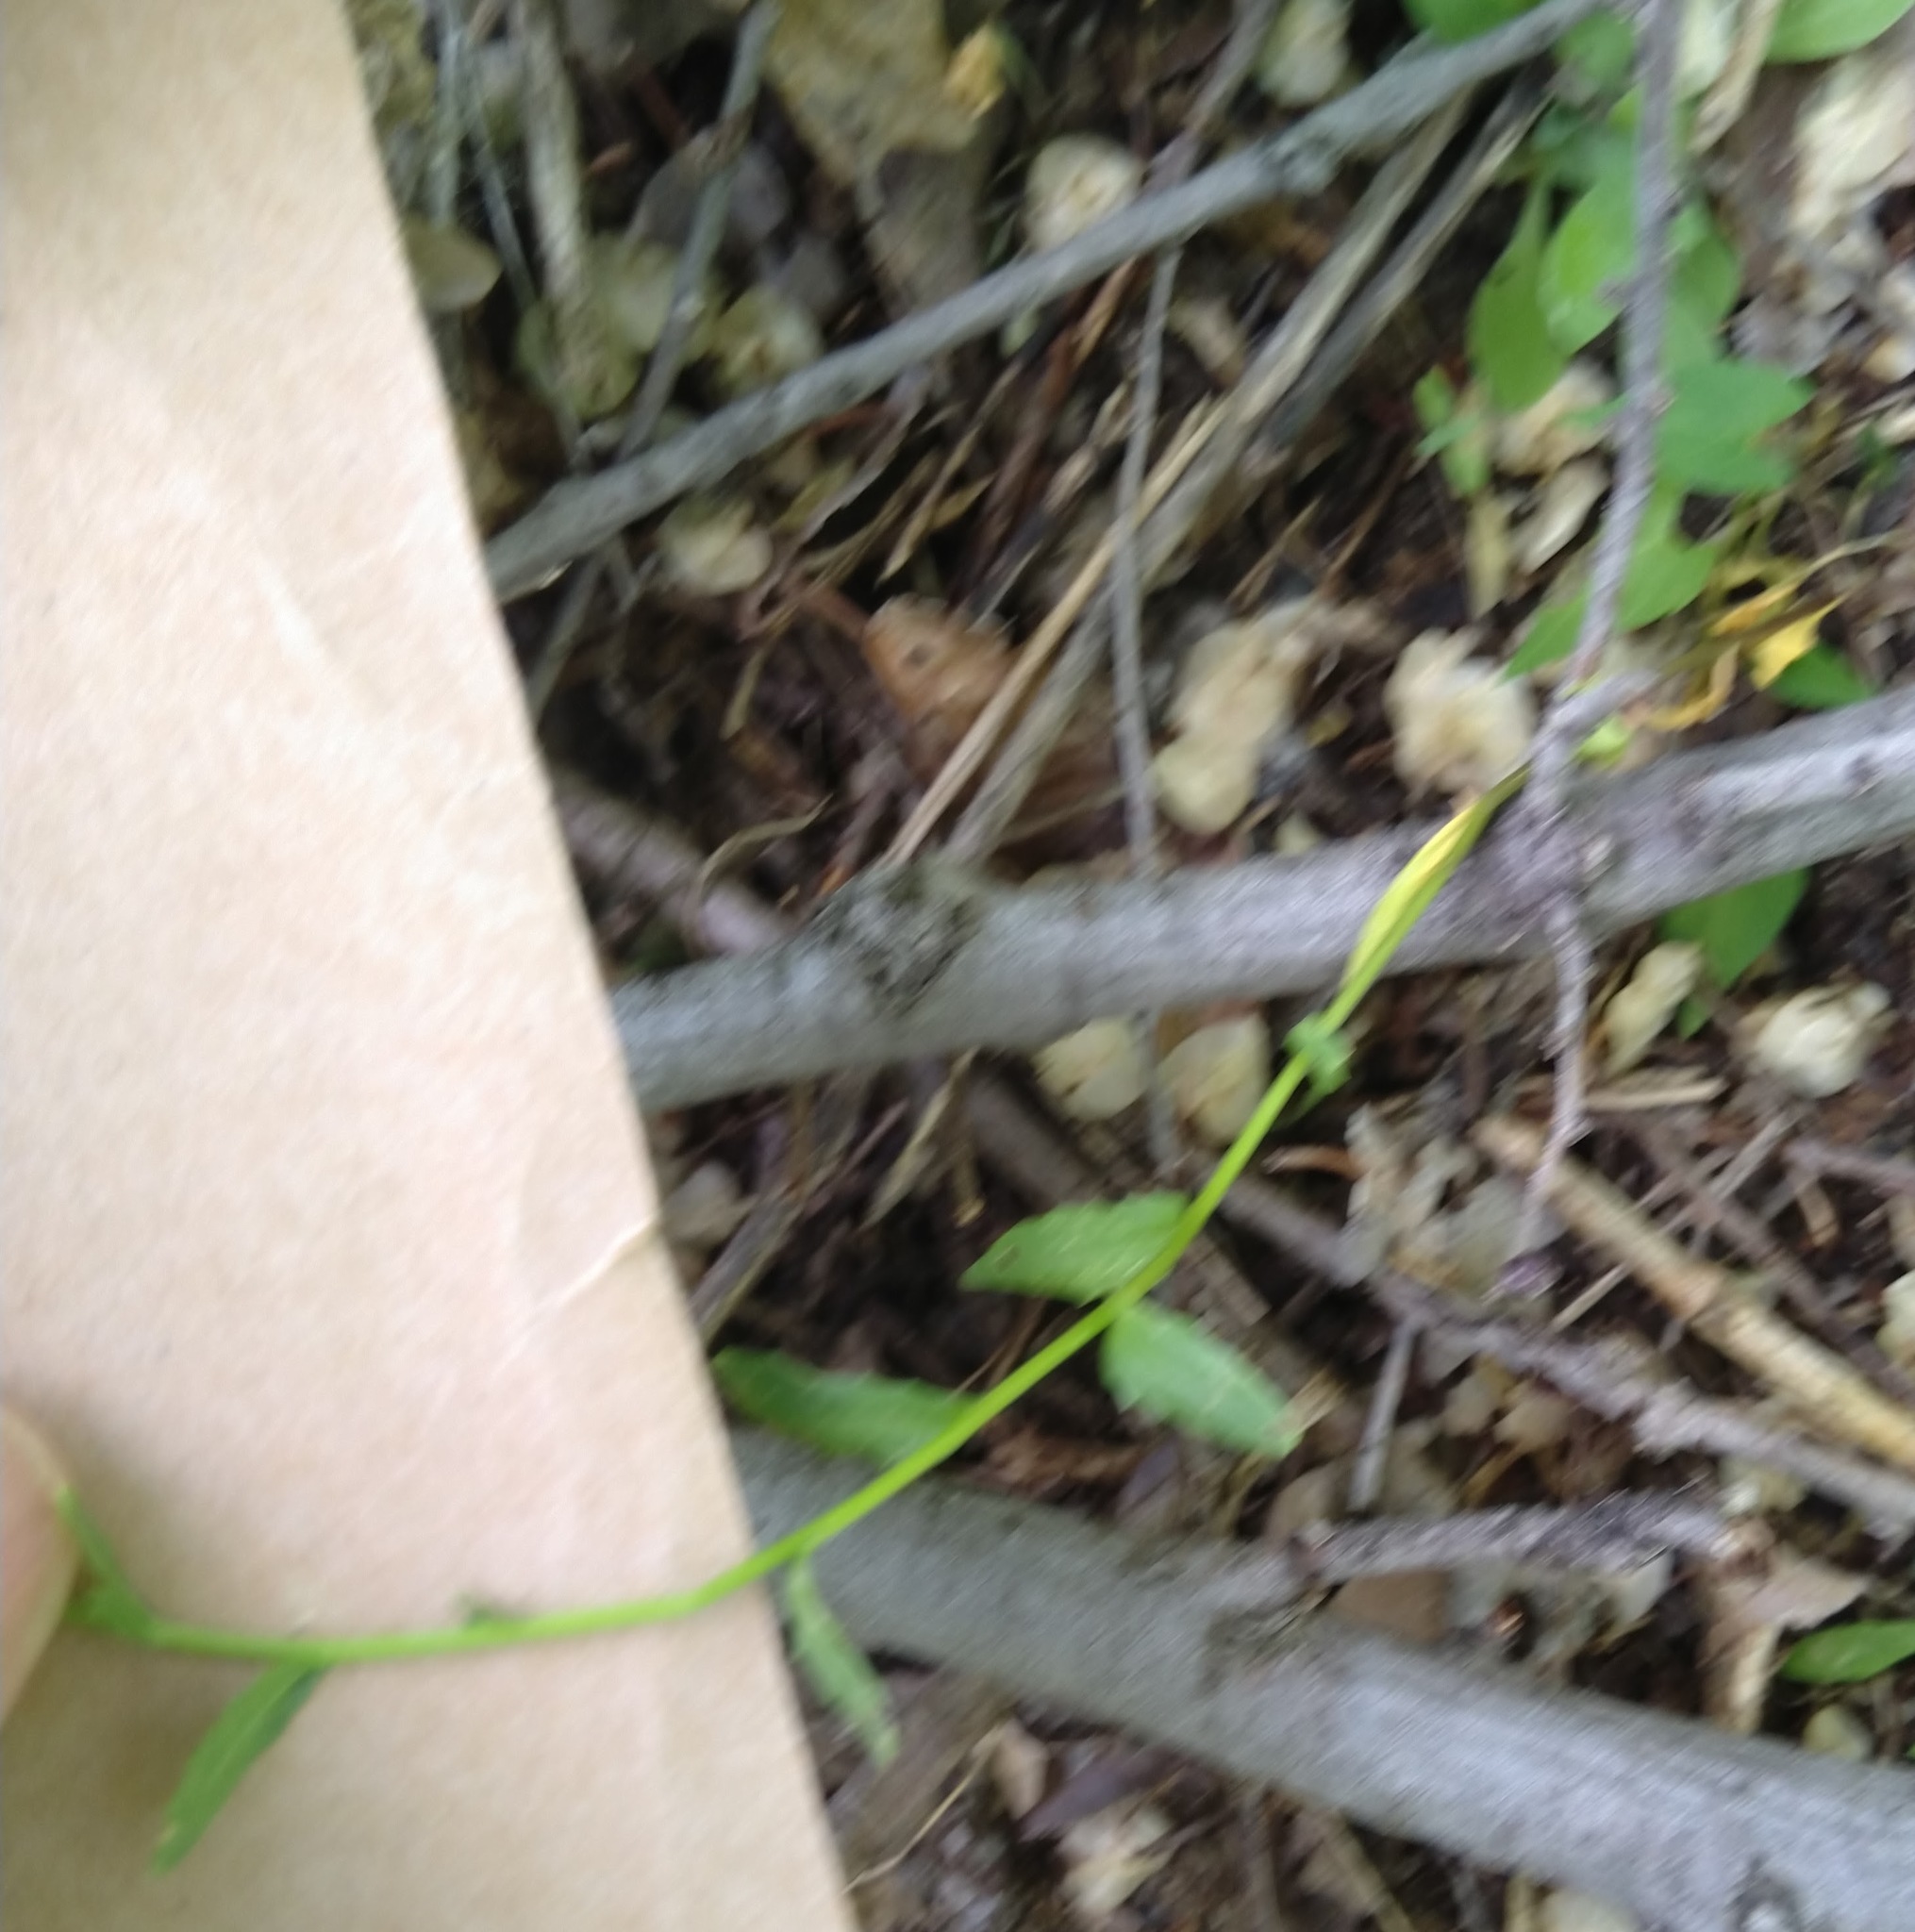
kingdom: Plantae
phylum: Tracheophyta
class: Magnoliopsida
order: Brassicales
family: Brassicaceae
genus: Thlaspi
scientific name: Thlaspi arvense
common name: Field pennycress
